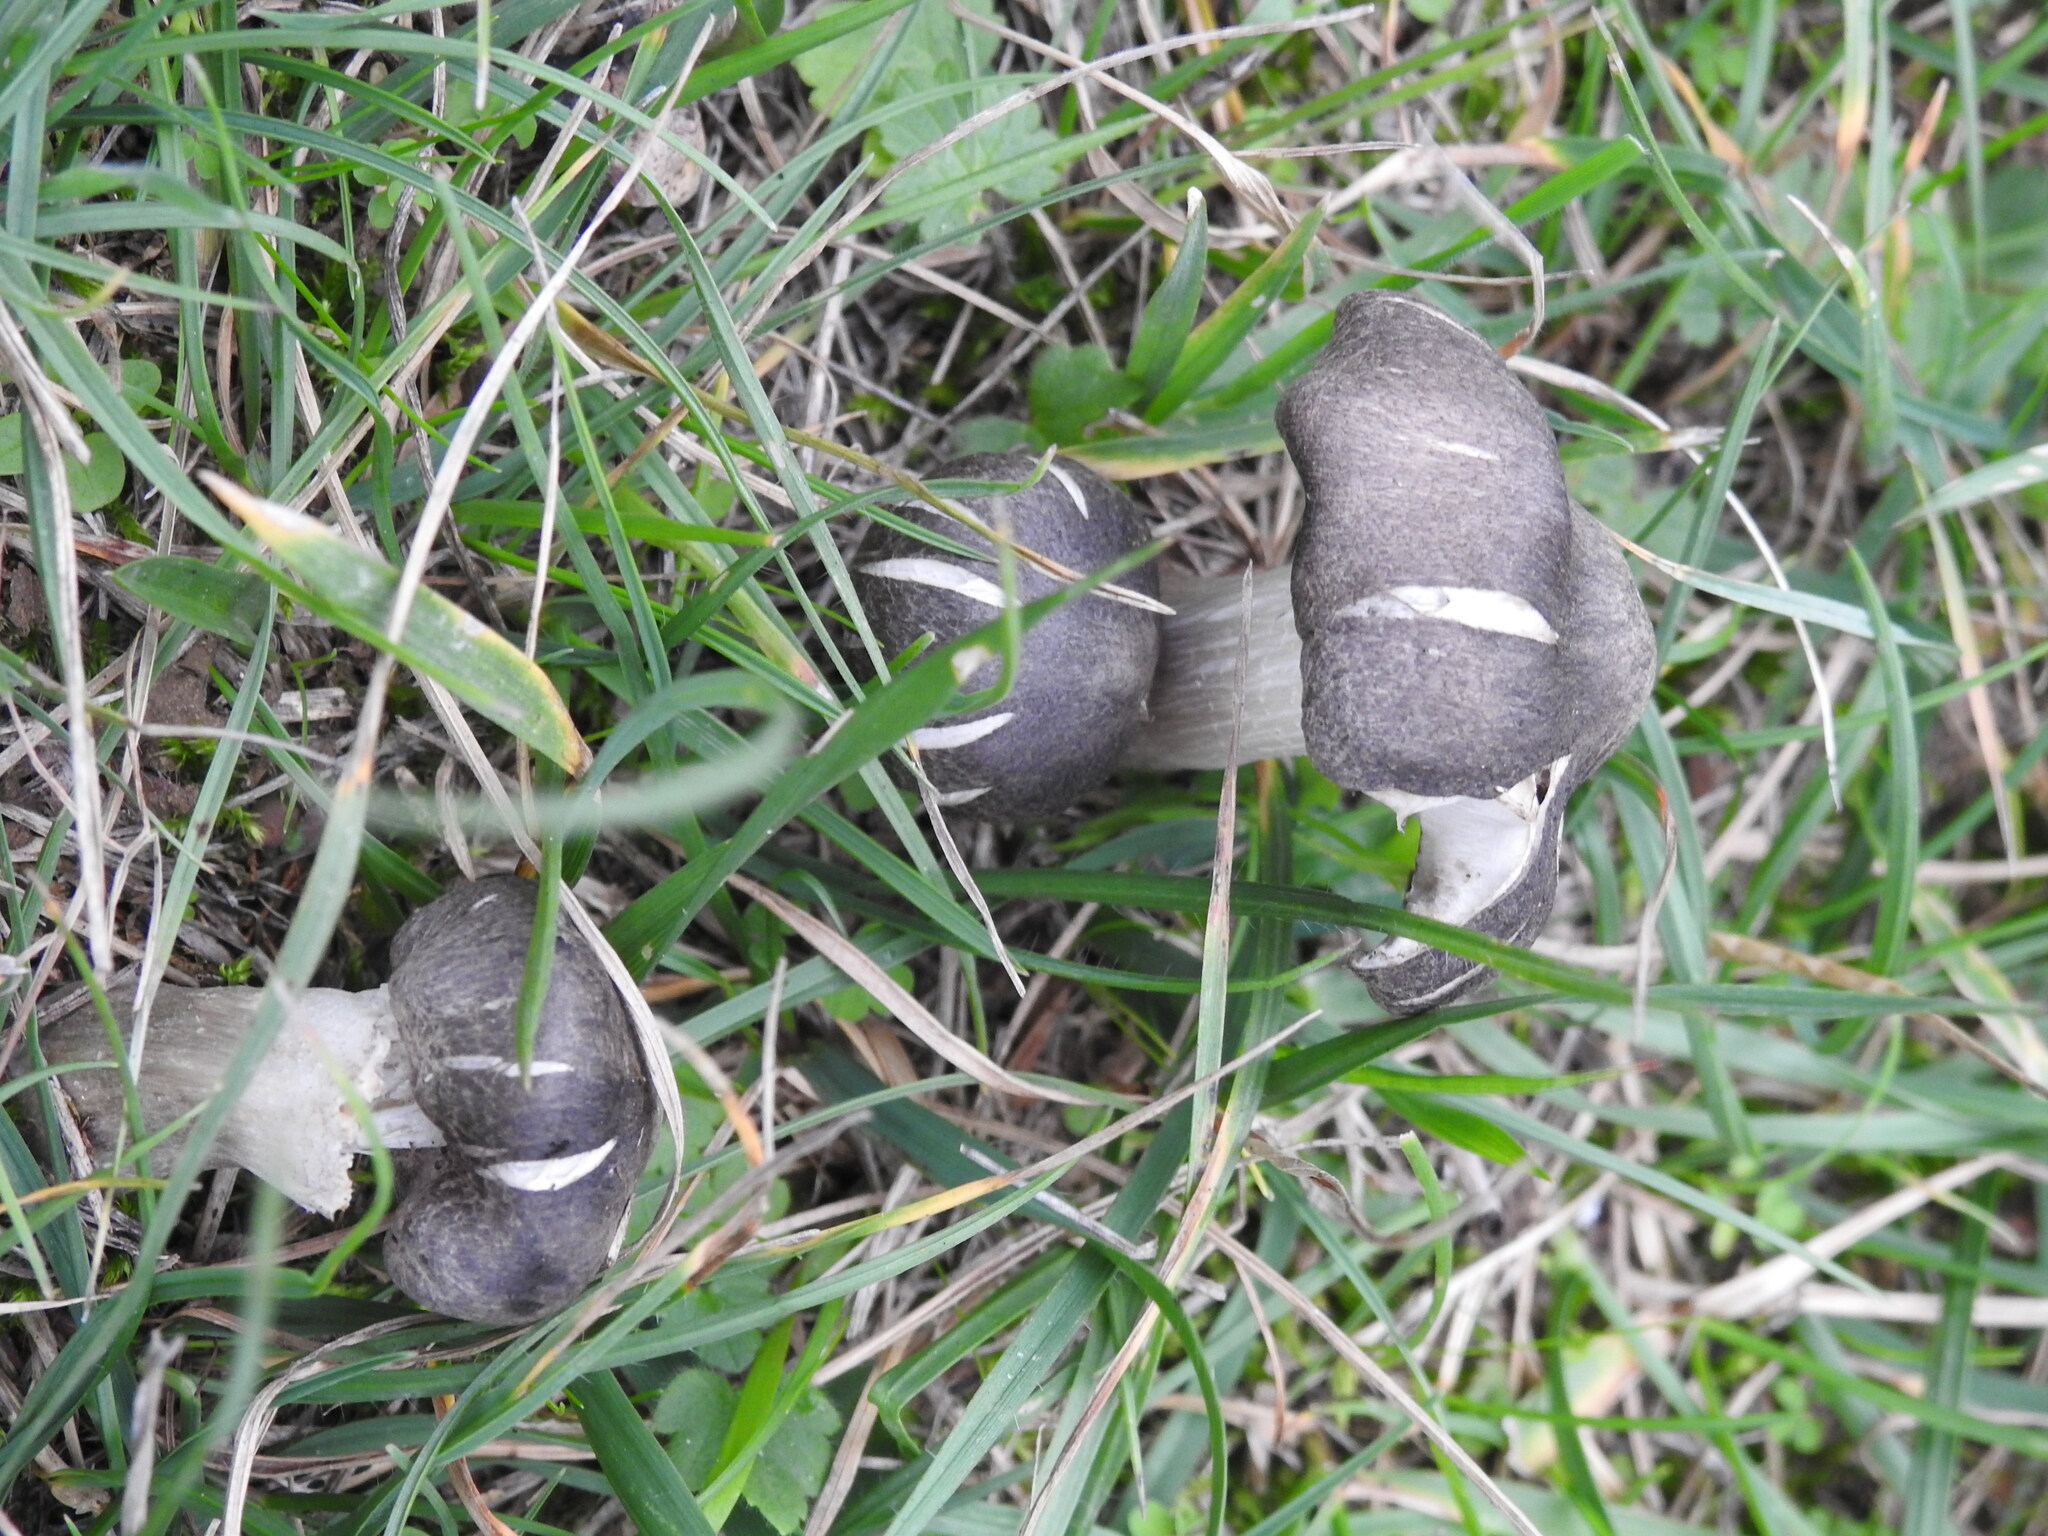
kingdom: Fungi
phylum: Basidiomycota
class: Agaricomycetes
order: Agaricales
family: Tricholomataceae
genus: Tricholoma
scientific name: Tricholoma terreum
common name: Grey knight
